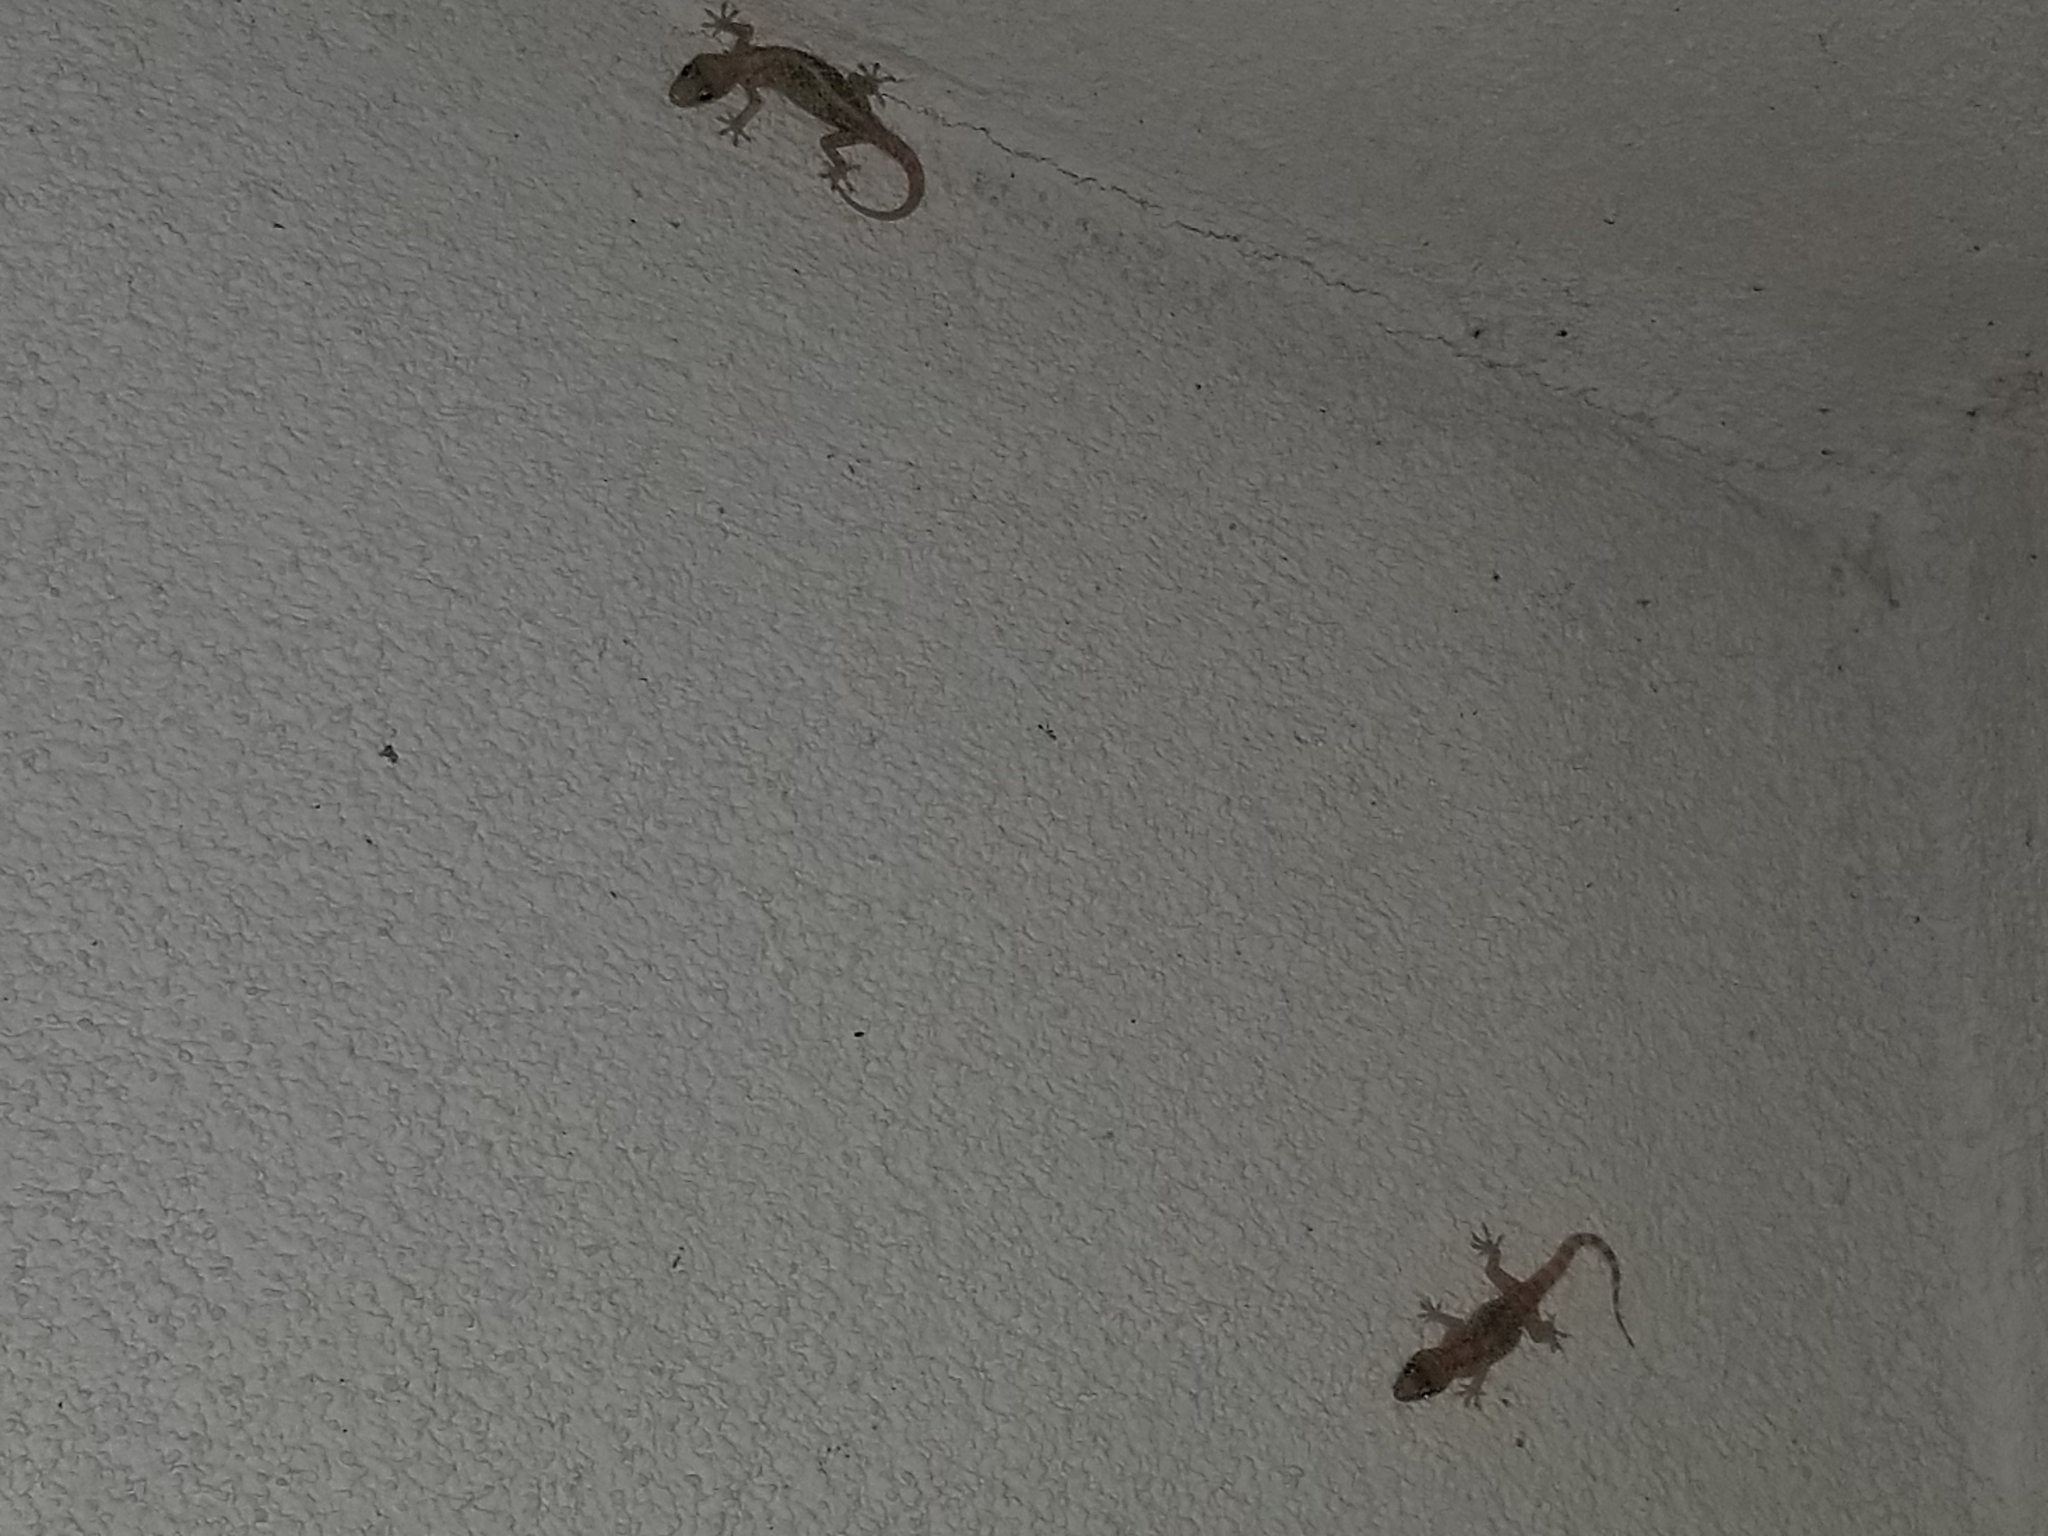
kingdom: Animalia
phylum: Chordata
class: Squamata
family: Gekkonidae
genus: Hemidactylus
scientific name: Hemidactylus turcicus
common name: Turkish gecko
